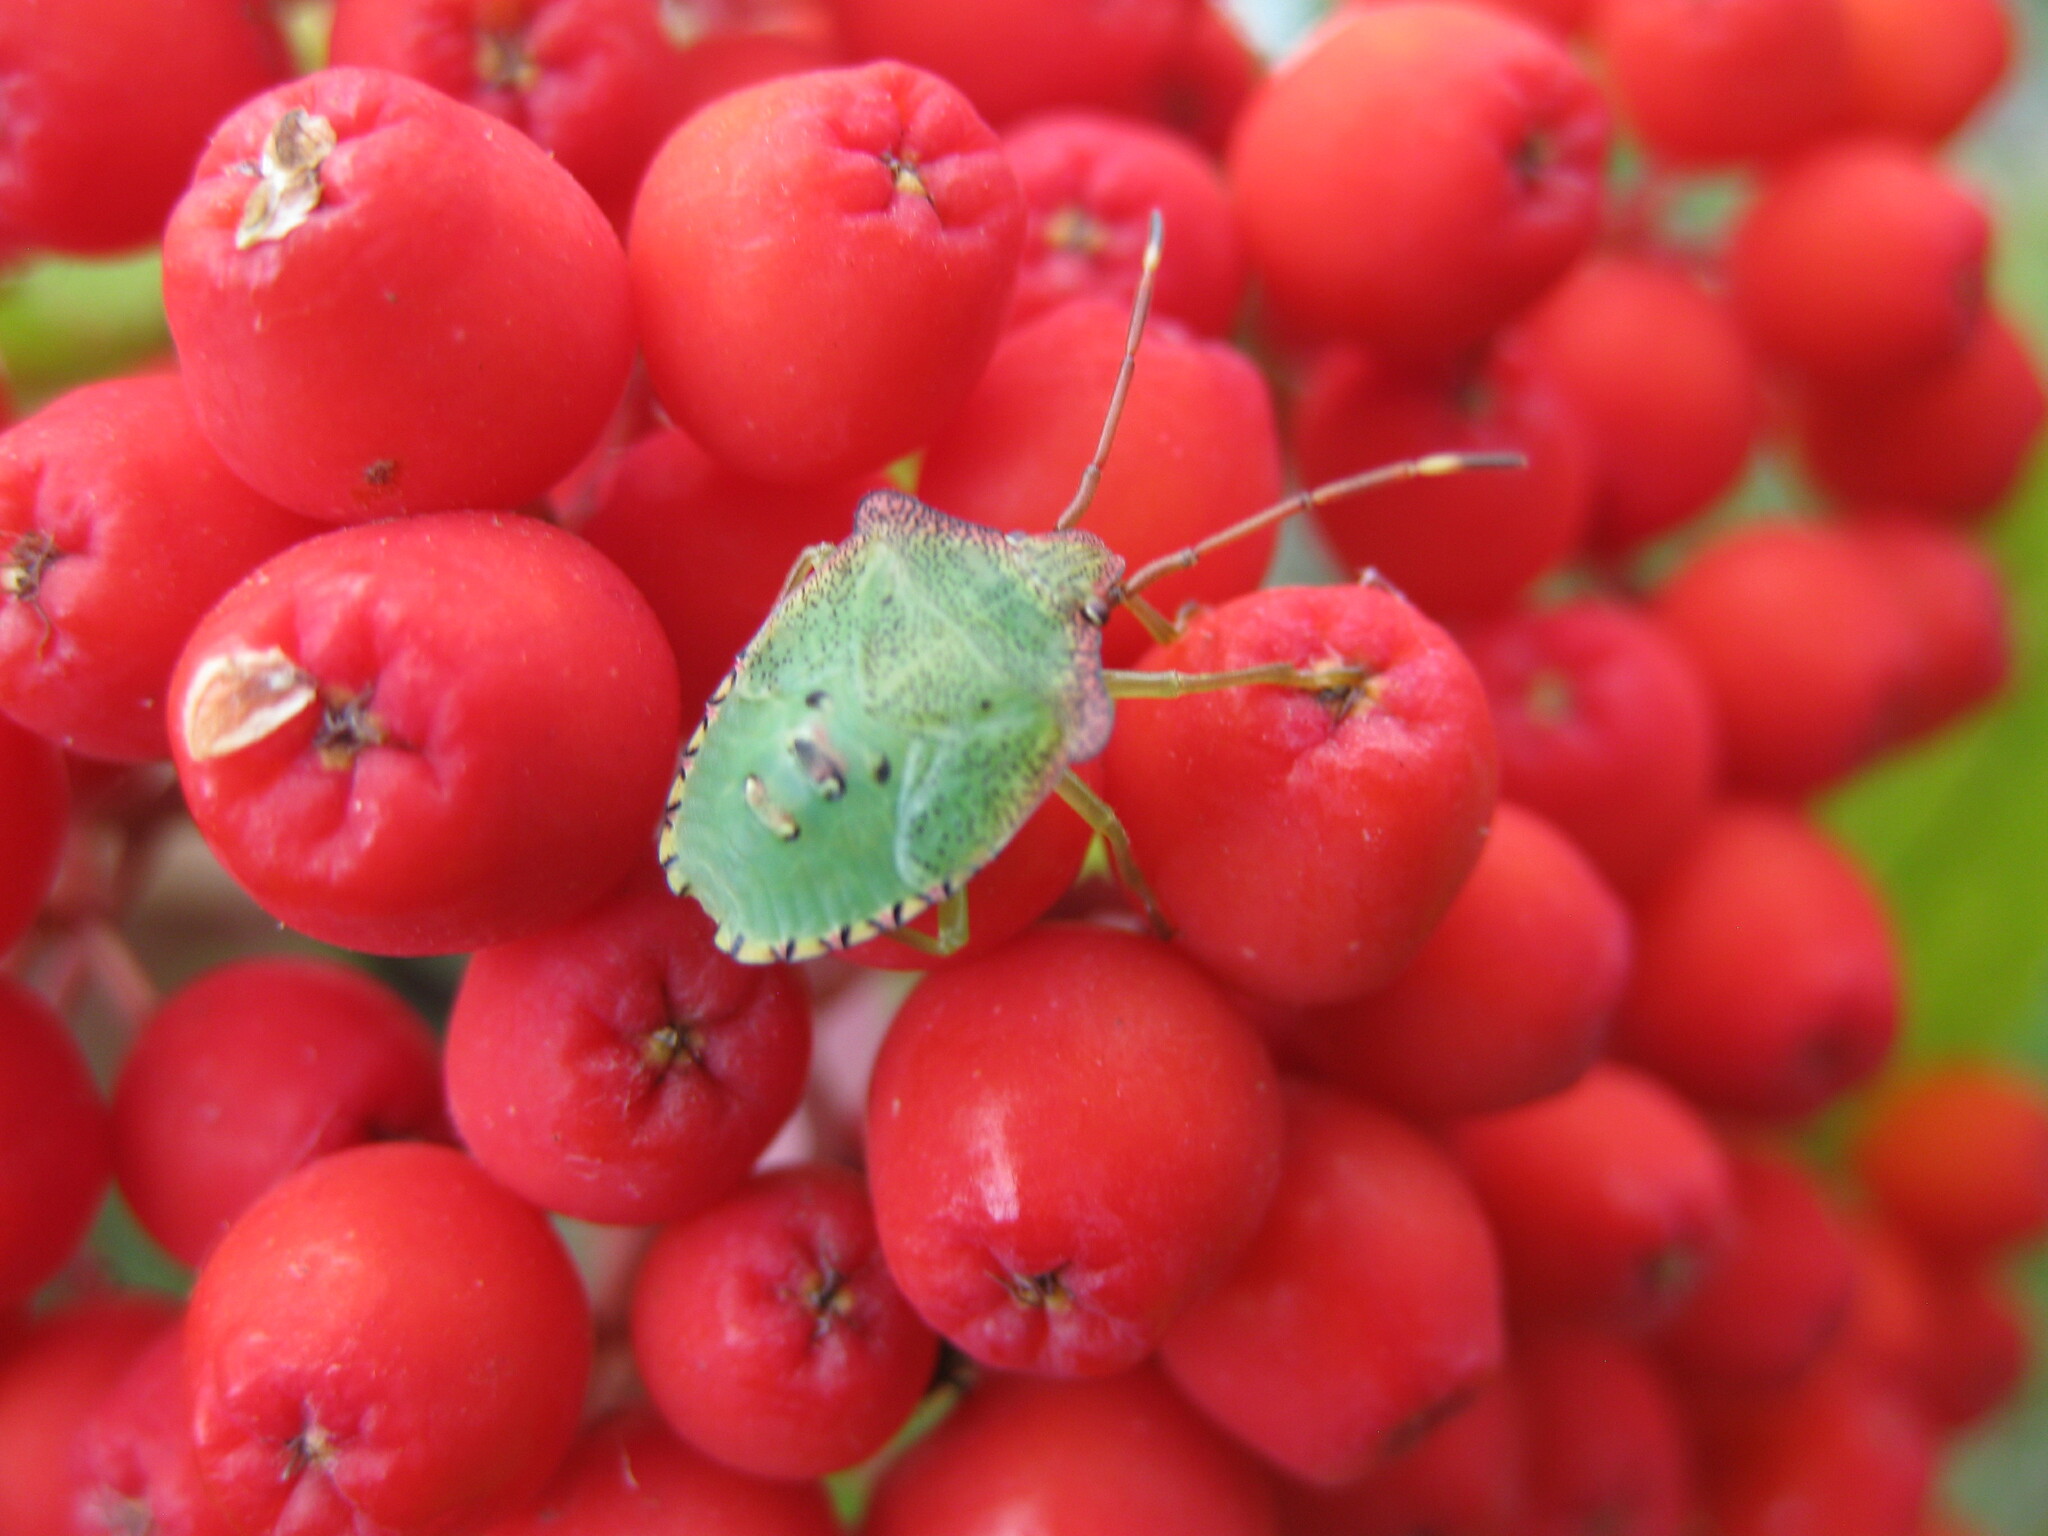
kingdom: Animalia
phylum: Arthropoda
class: Insecta
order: Hemiptera
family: Acanthosomatidae
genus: Acanthosoma
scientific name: Acanthosoma haemorrhoidale
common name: Hawthorn shieldbug
